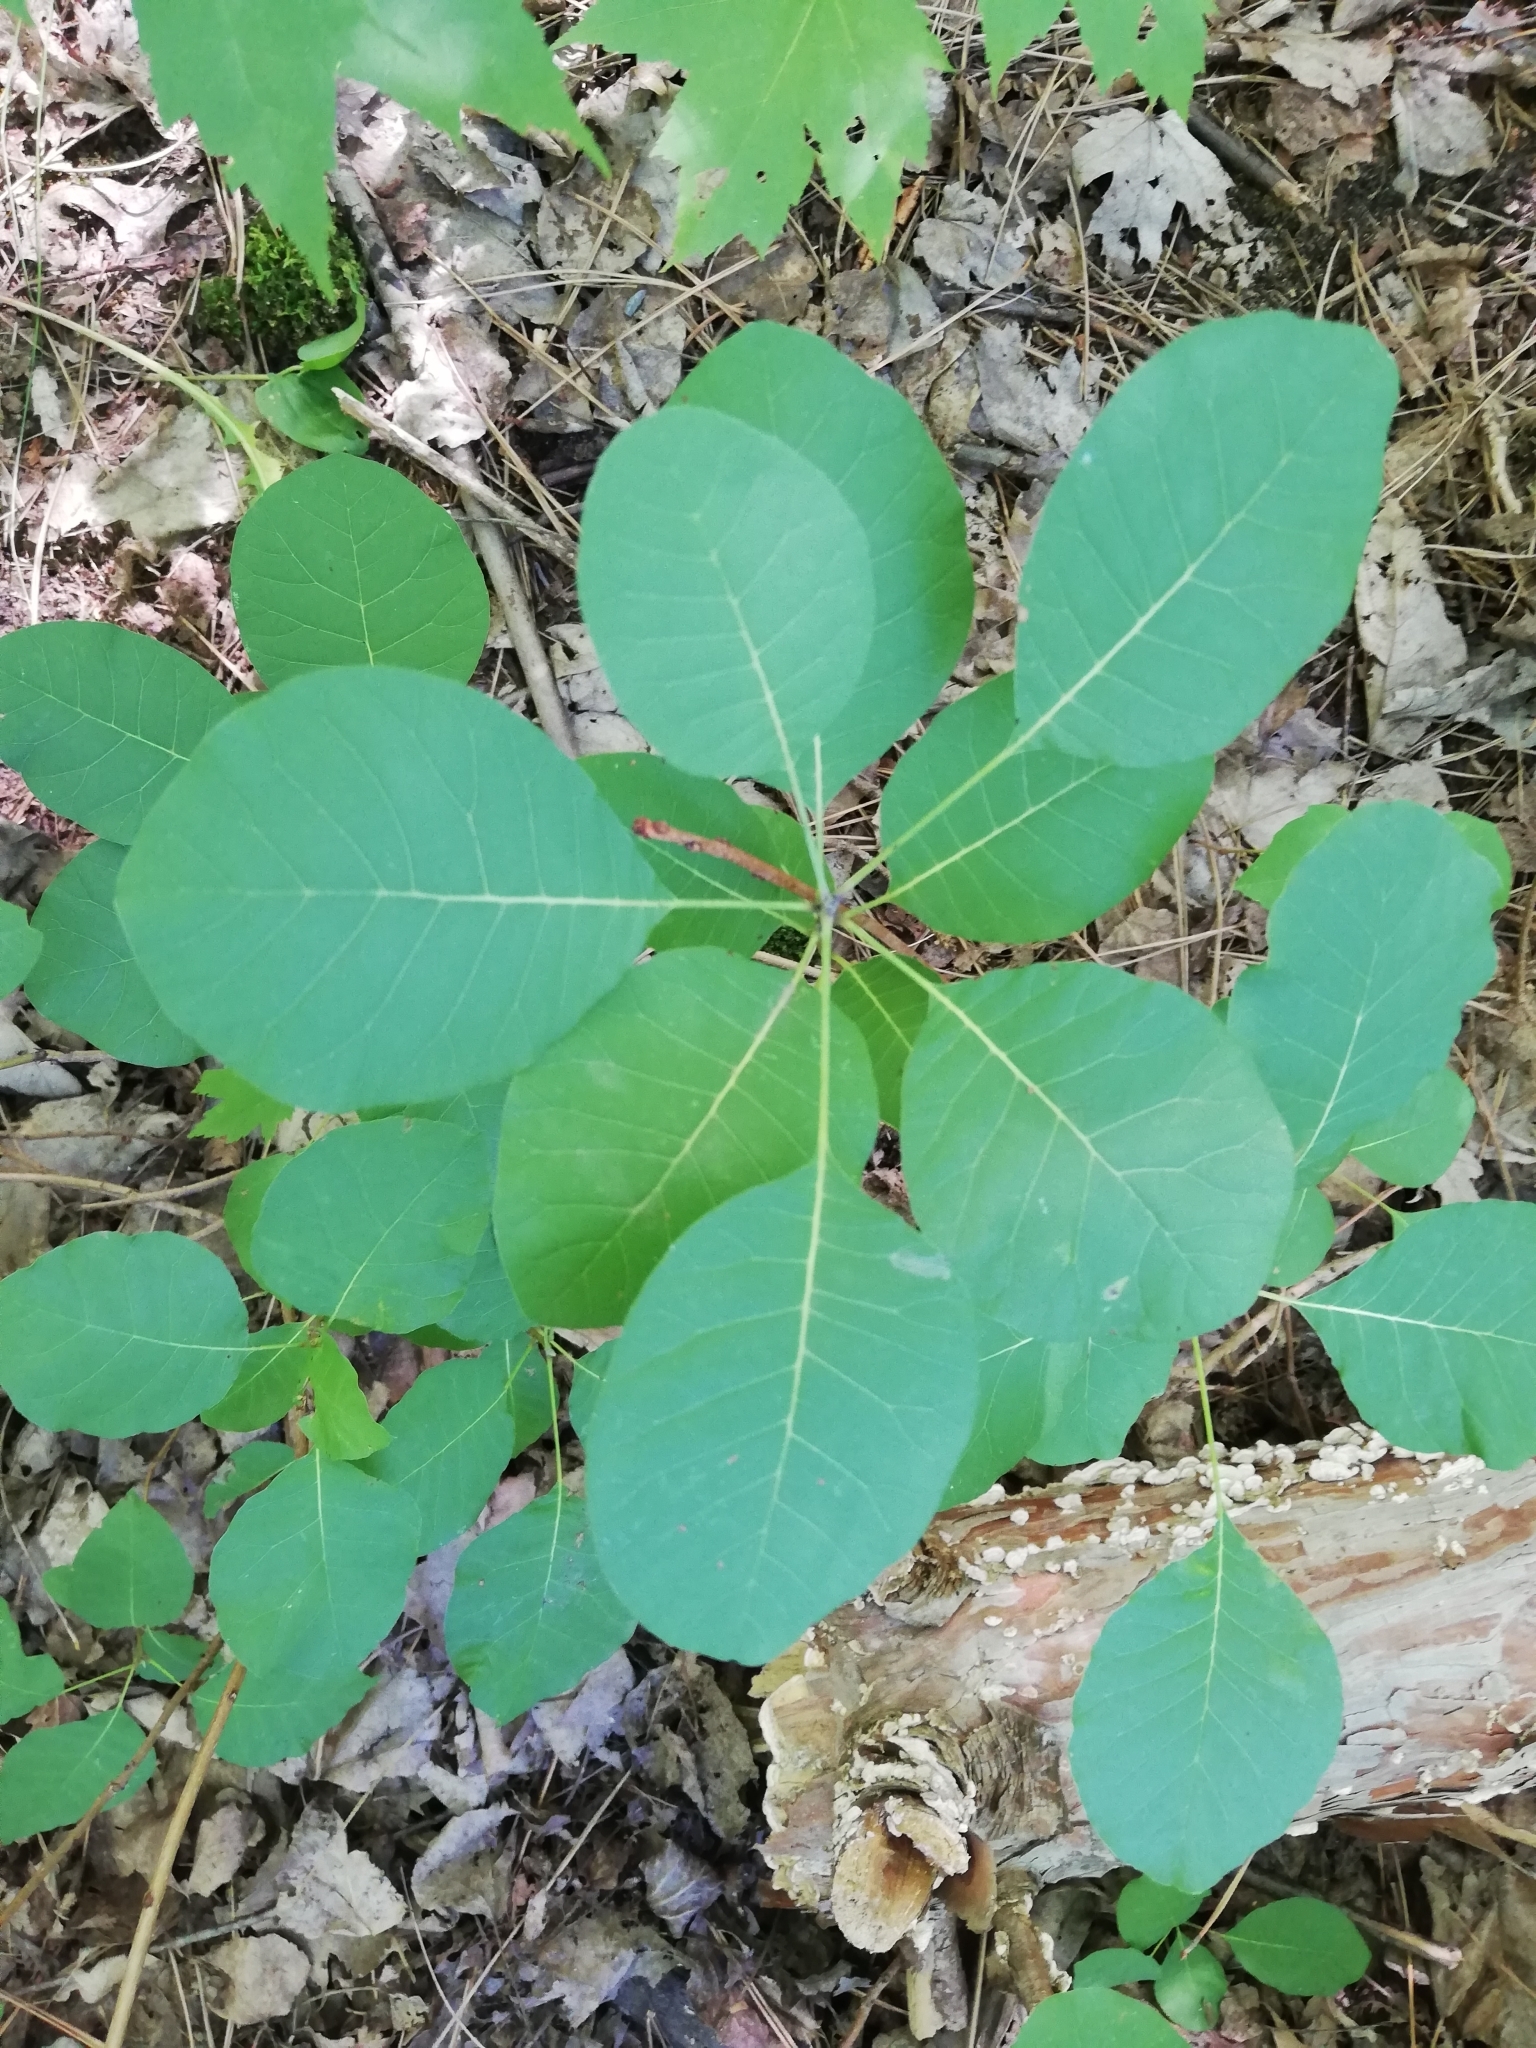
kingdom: Plantae
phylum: Tracheophyta
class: Magnoliopsida
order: Sapindales
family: Anacardiaceae
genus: Cotinus
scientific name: Cotinus coggygria
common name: Smoke-tree
